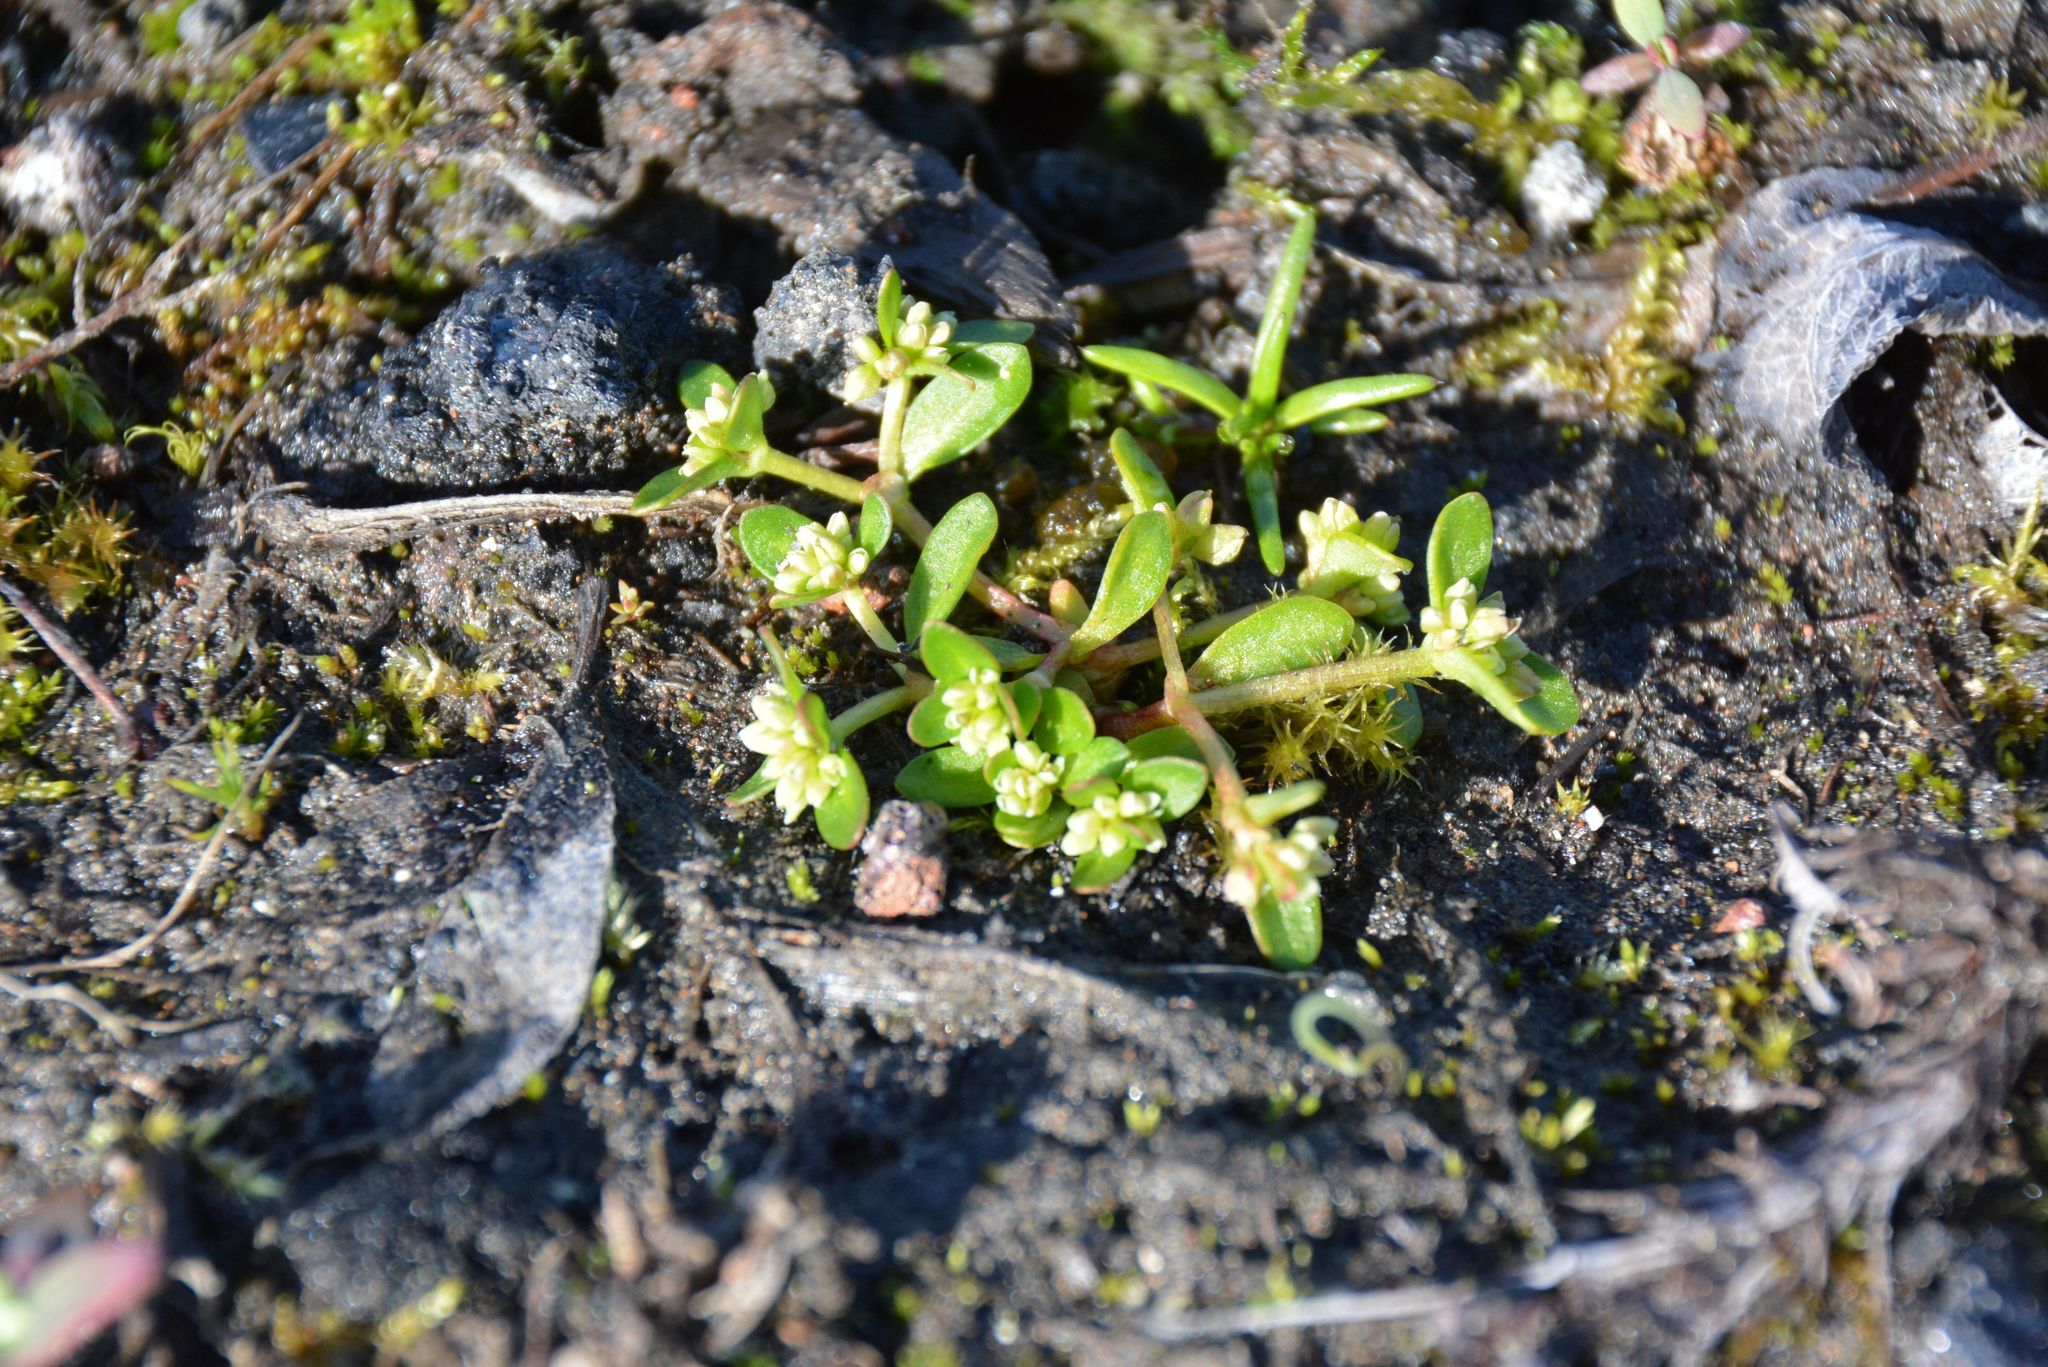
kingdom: Plantae
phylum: Tracheophyta
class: Magnoliopsida
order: Caryophyllales
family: Montiaceae
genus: Montia
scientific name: Montia fontana
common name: Blinks
